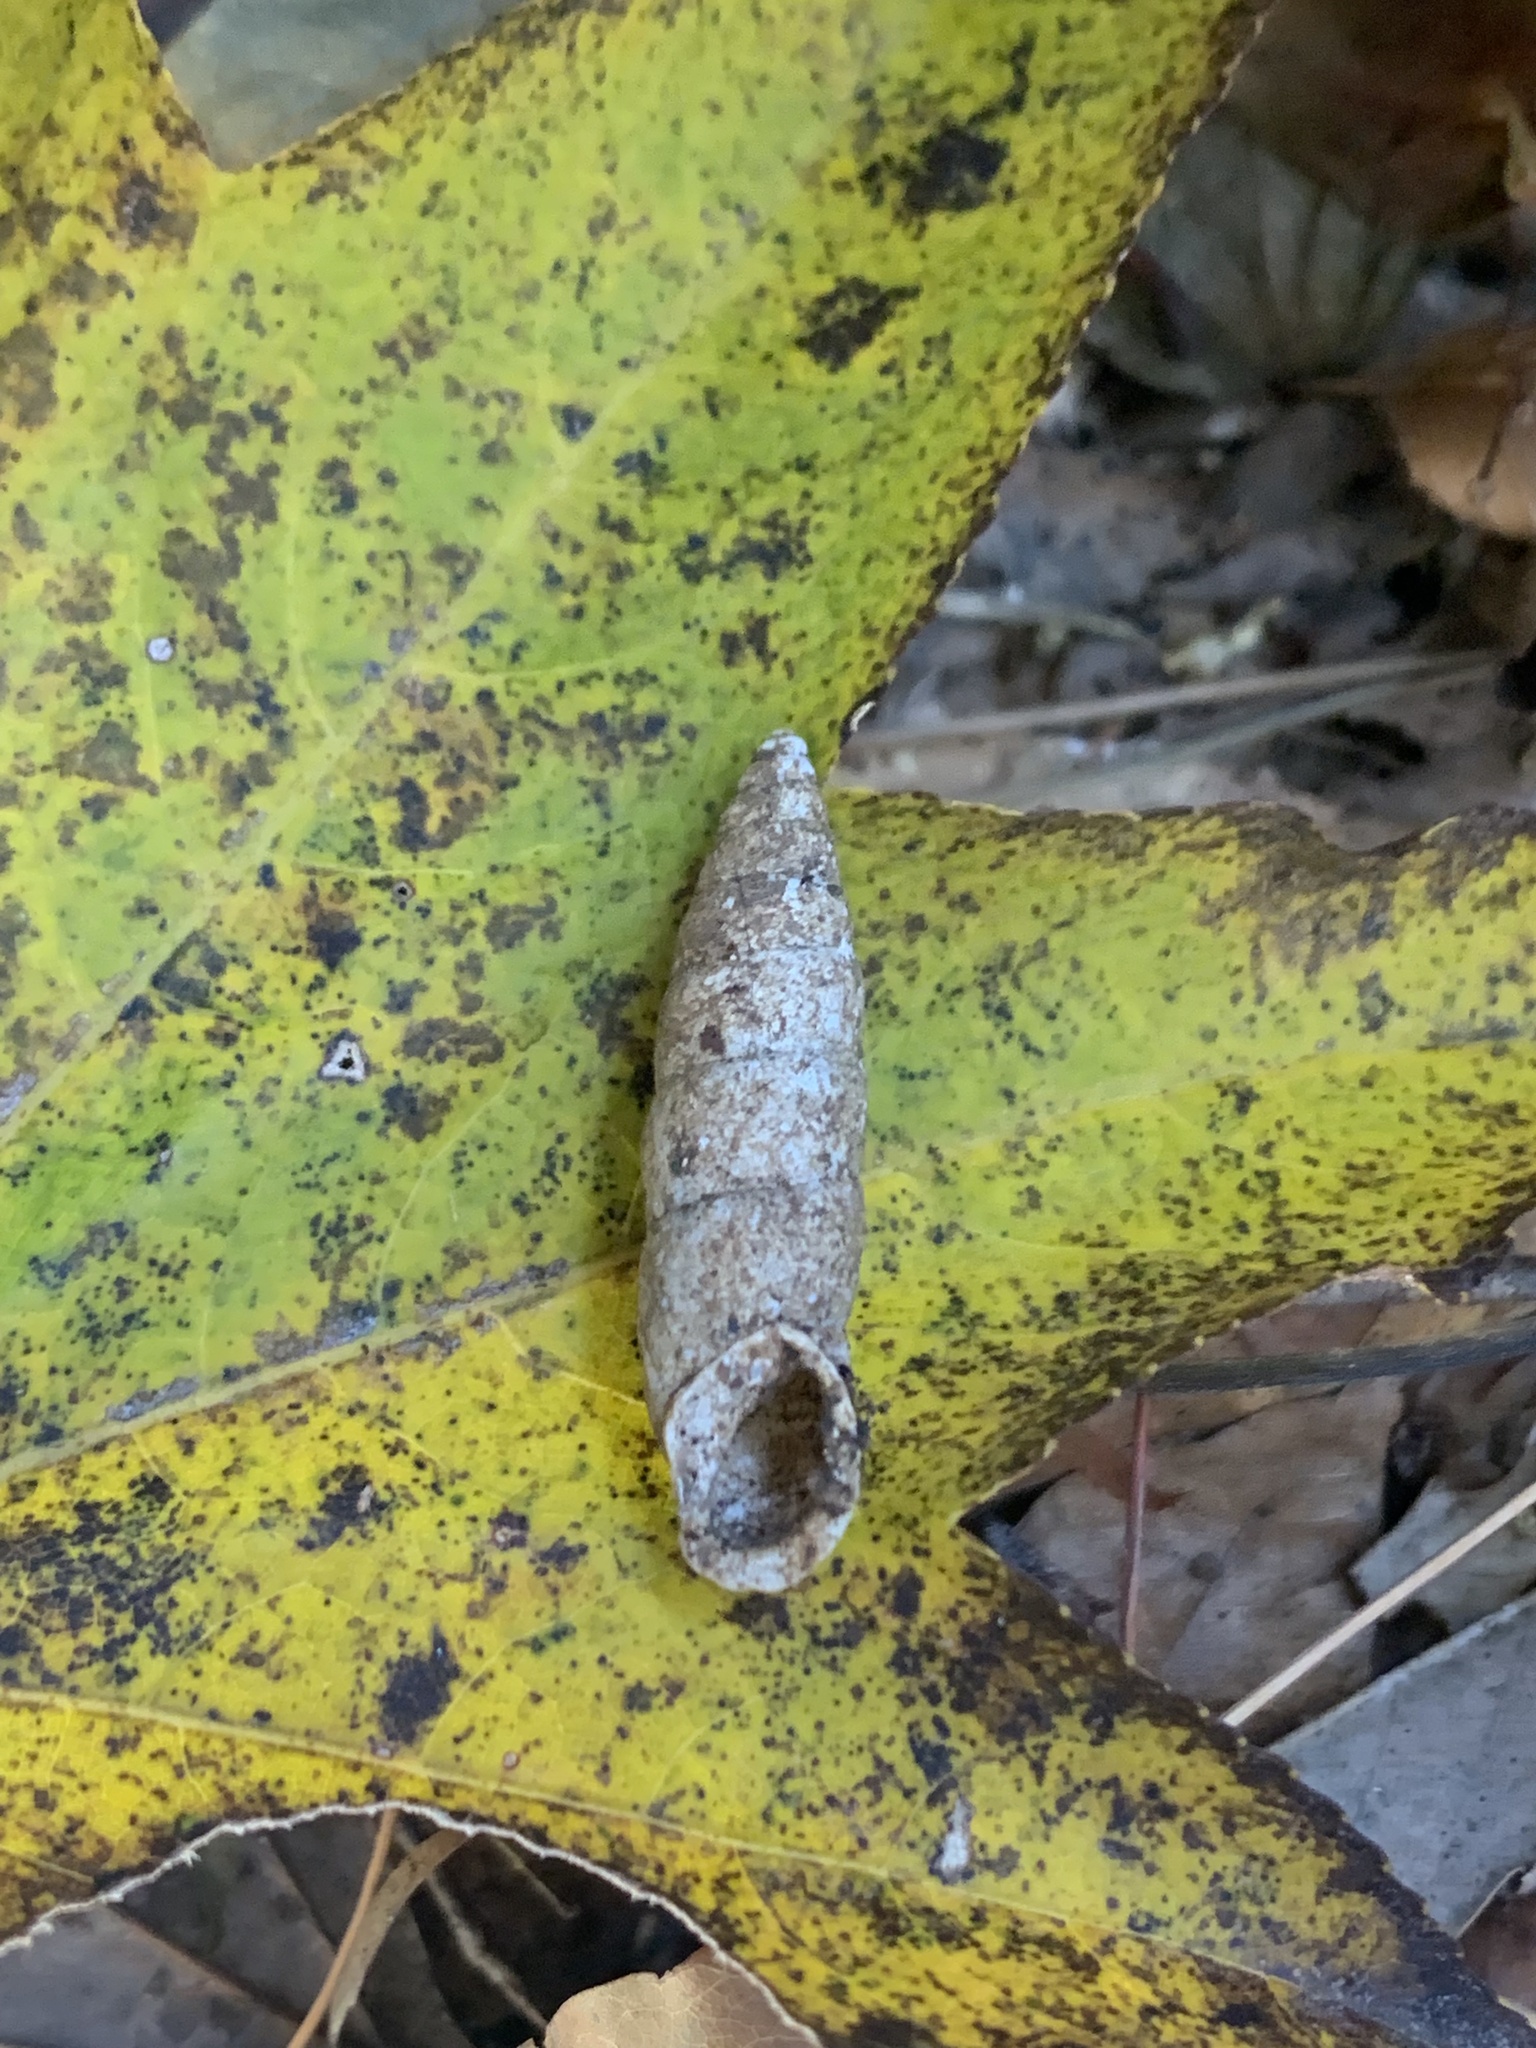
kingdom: Animalia
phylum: Mollusca
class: Gastropoda
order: Stylommatophora
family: Enidae
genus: Mirus
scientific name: Mirus reinianus
